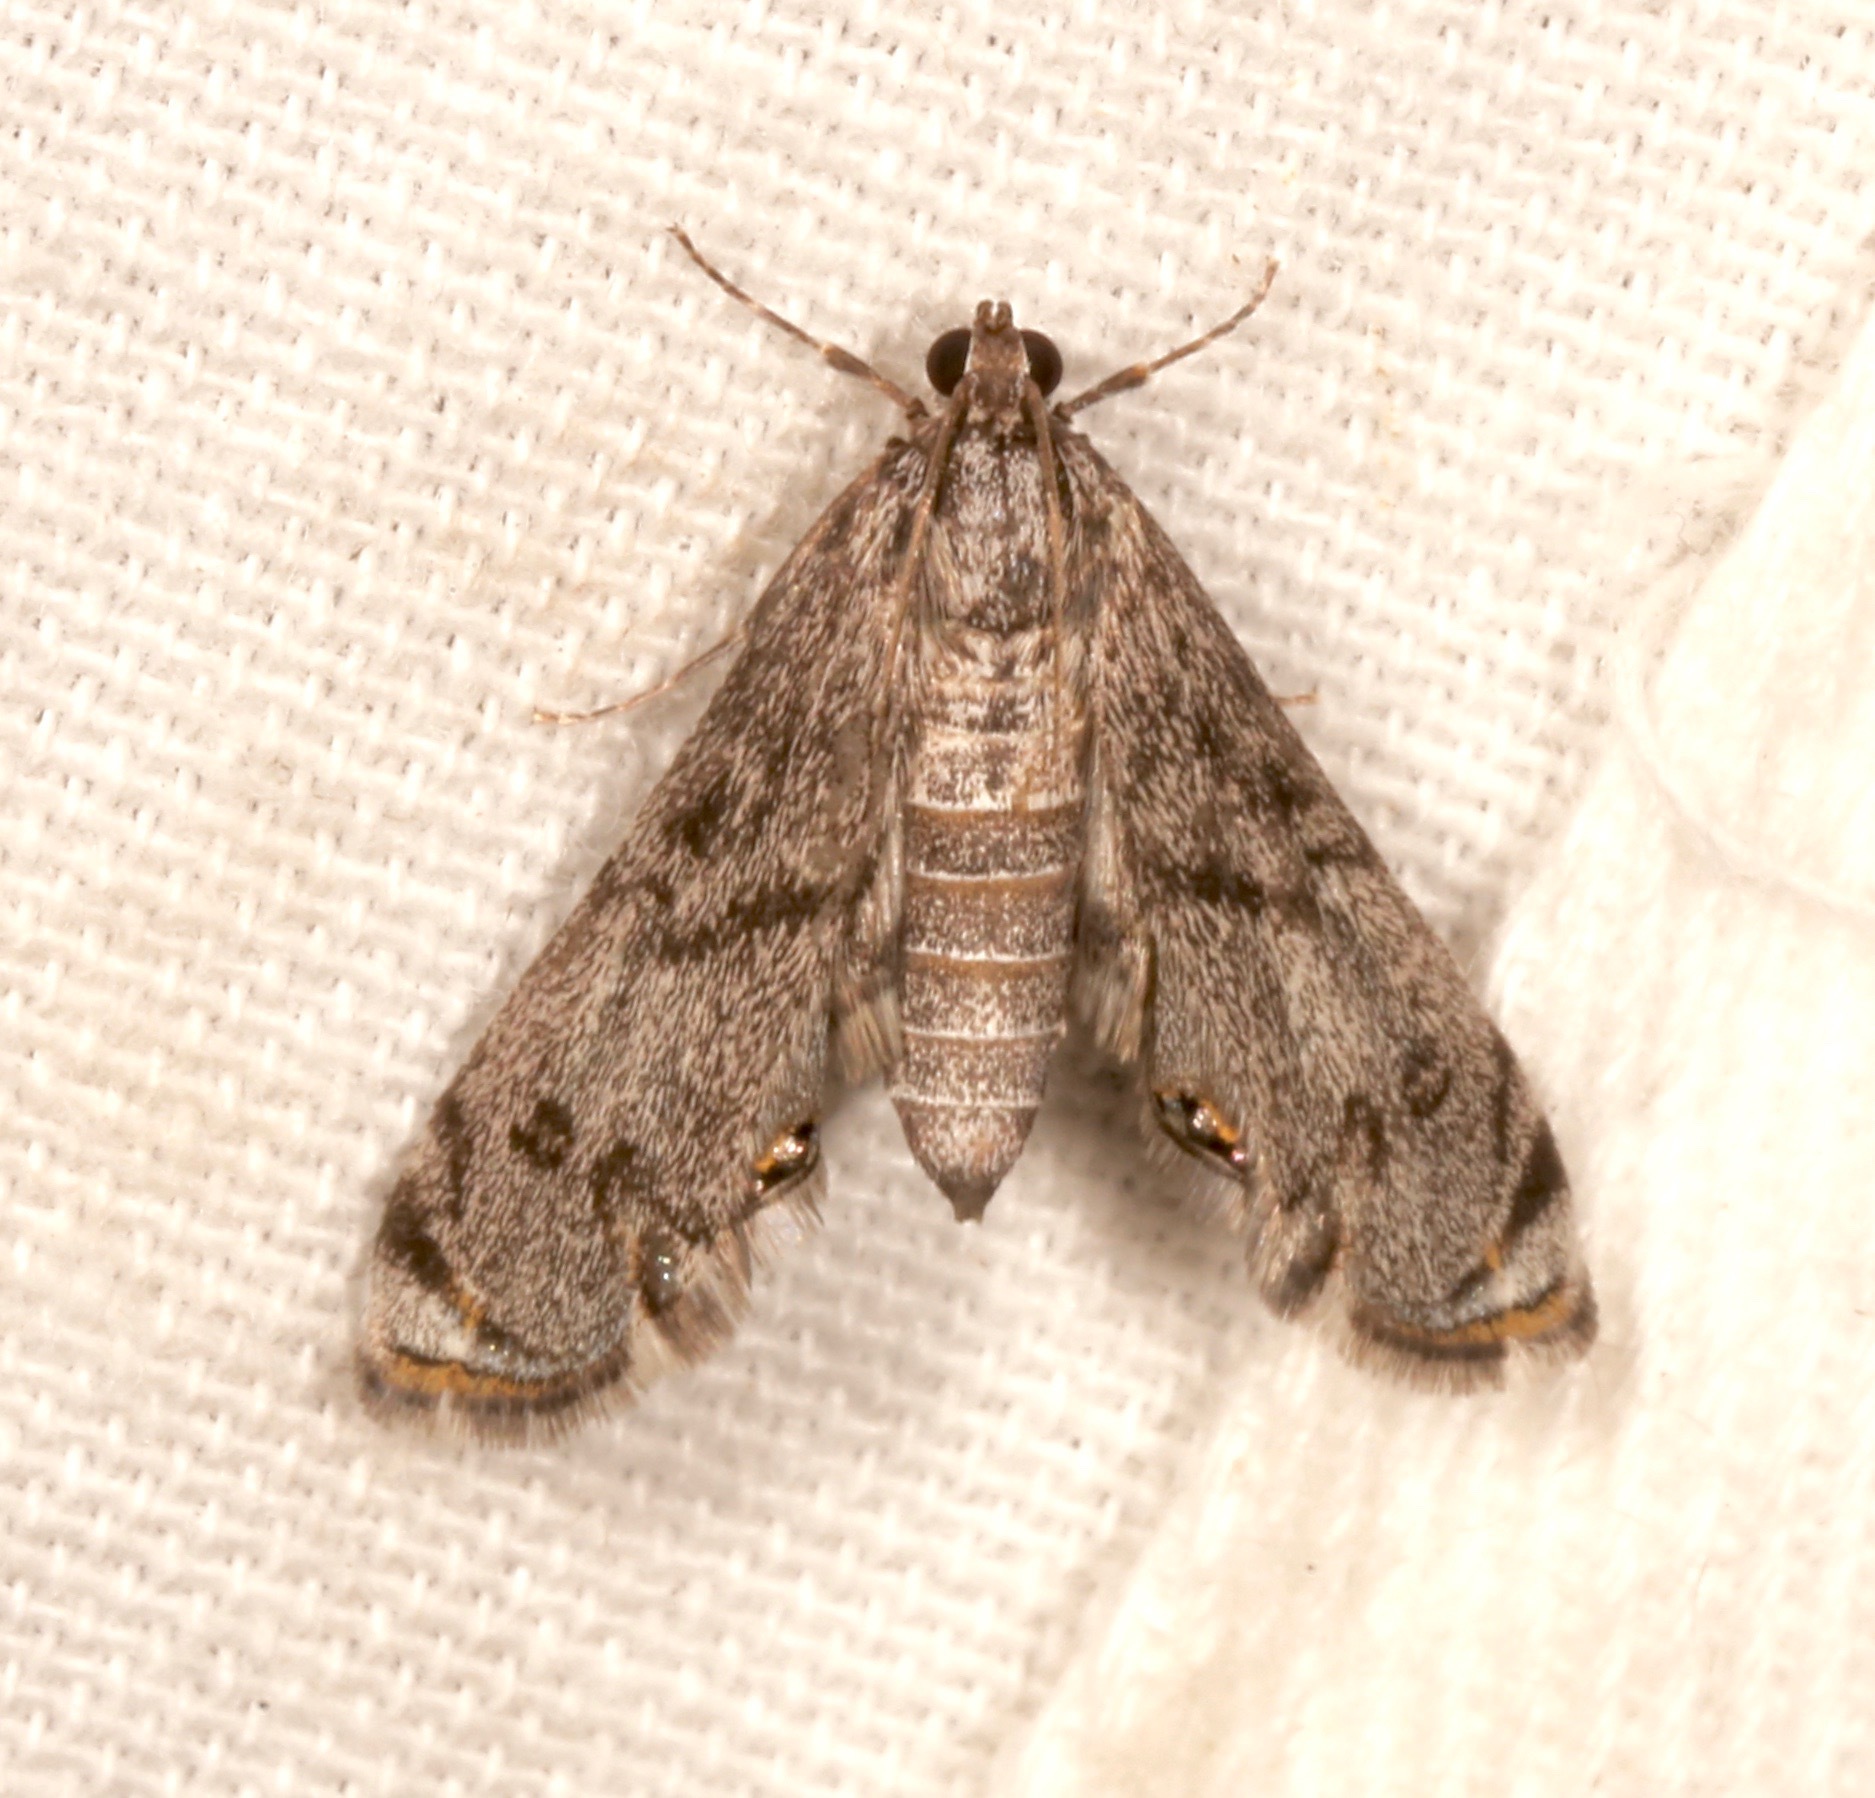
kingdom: Animalia
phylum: Arthropoda
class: Insecta
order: Lepidoptera
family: Crambidae
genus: Petrophila
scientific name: Petrophila schaefferalis
